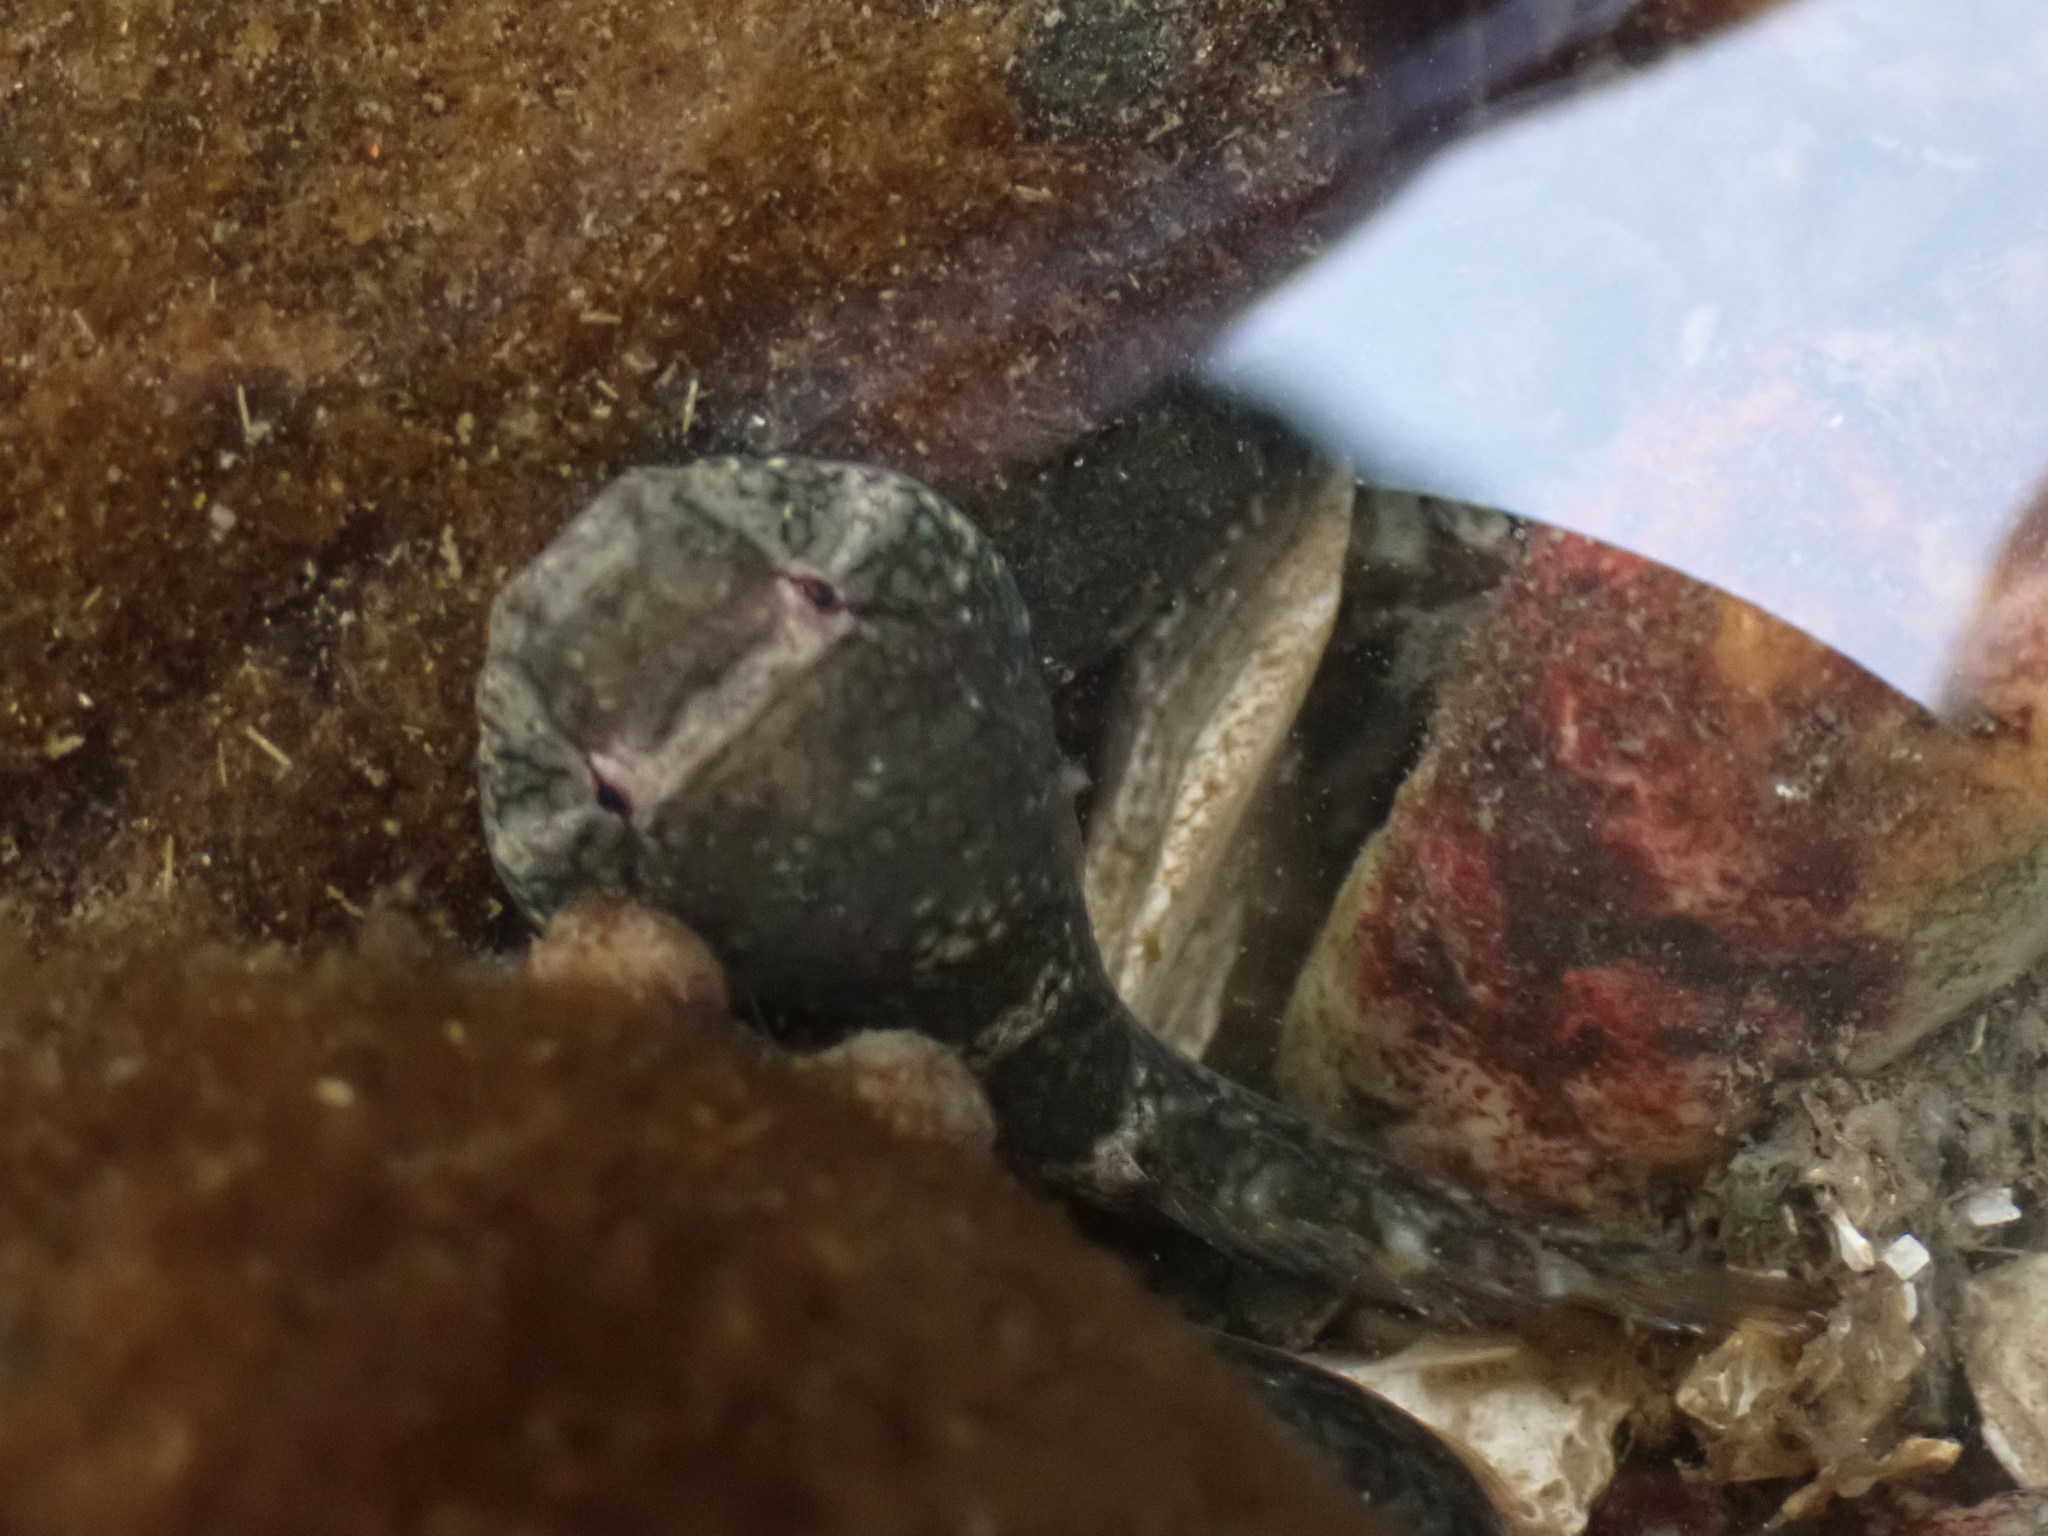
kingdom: Animalia
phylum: Chordata
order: Gobiesociformes
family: Gobiesocidae
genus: Gobiesox
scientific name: Gobiesox maeandricus
